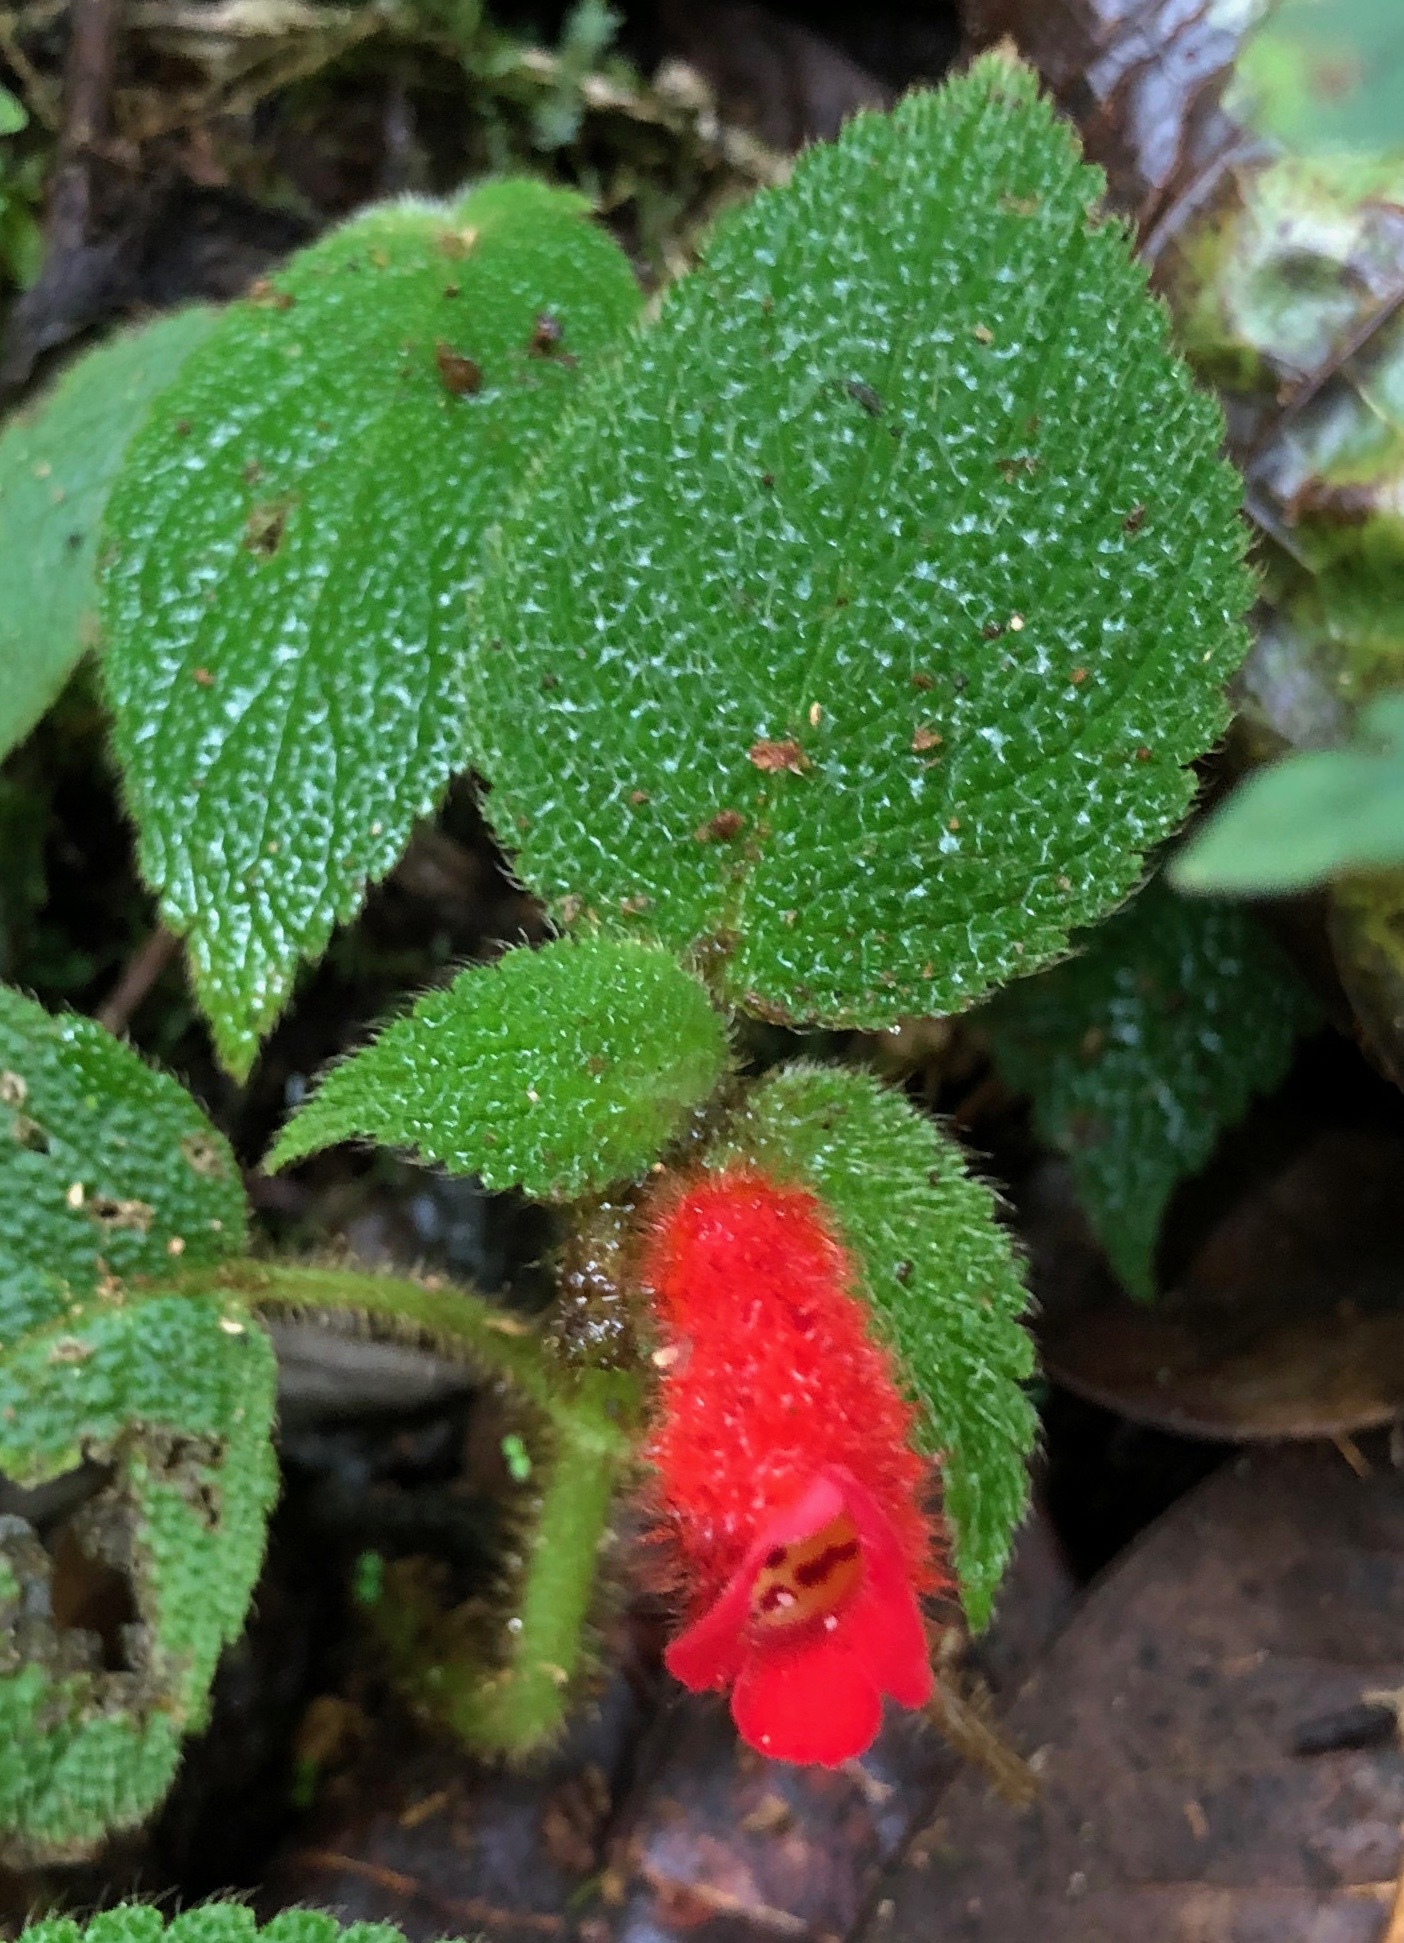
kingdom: Plantae
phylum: Tracheophyta
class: Magnoliopsida
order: Lamiales
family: Gesneriaceae
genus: Kohleria
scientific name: Kohleria villosa
